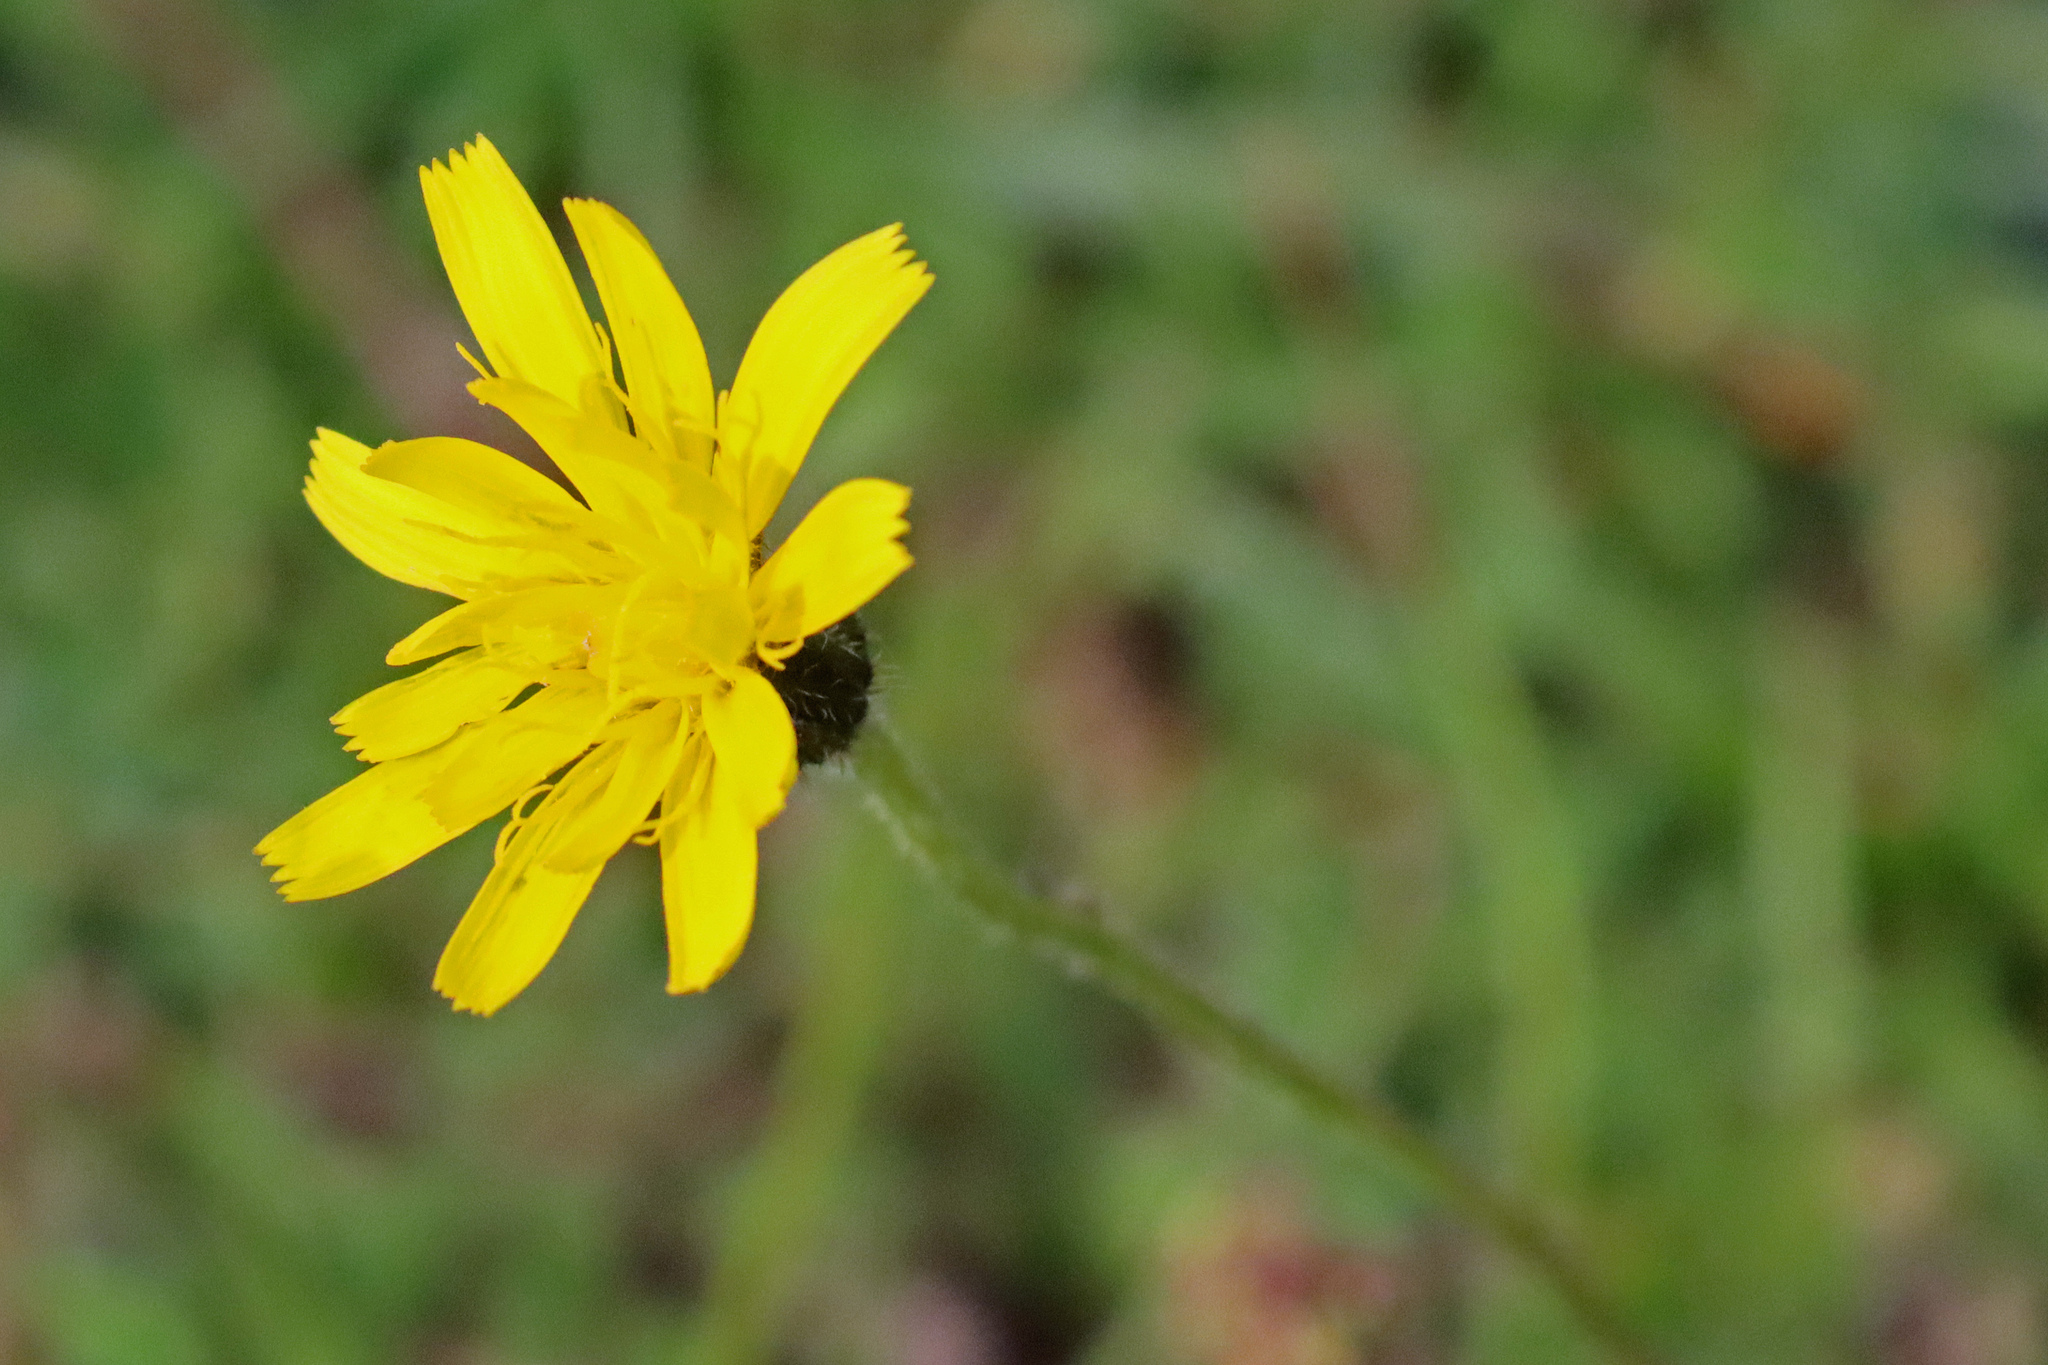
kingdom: Plantae
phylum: Tracheophyta
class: Magnoliopsida
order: Asterales
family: Asteraceae
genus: Leontodon
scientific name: Leontodon hispidus
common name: Rough hawkbit
